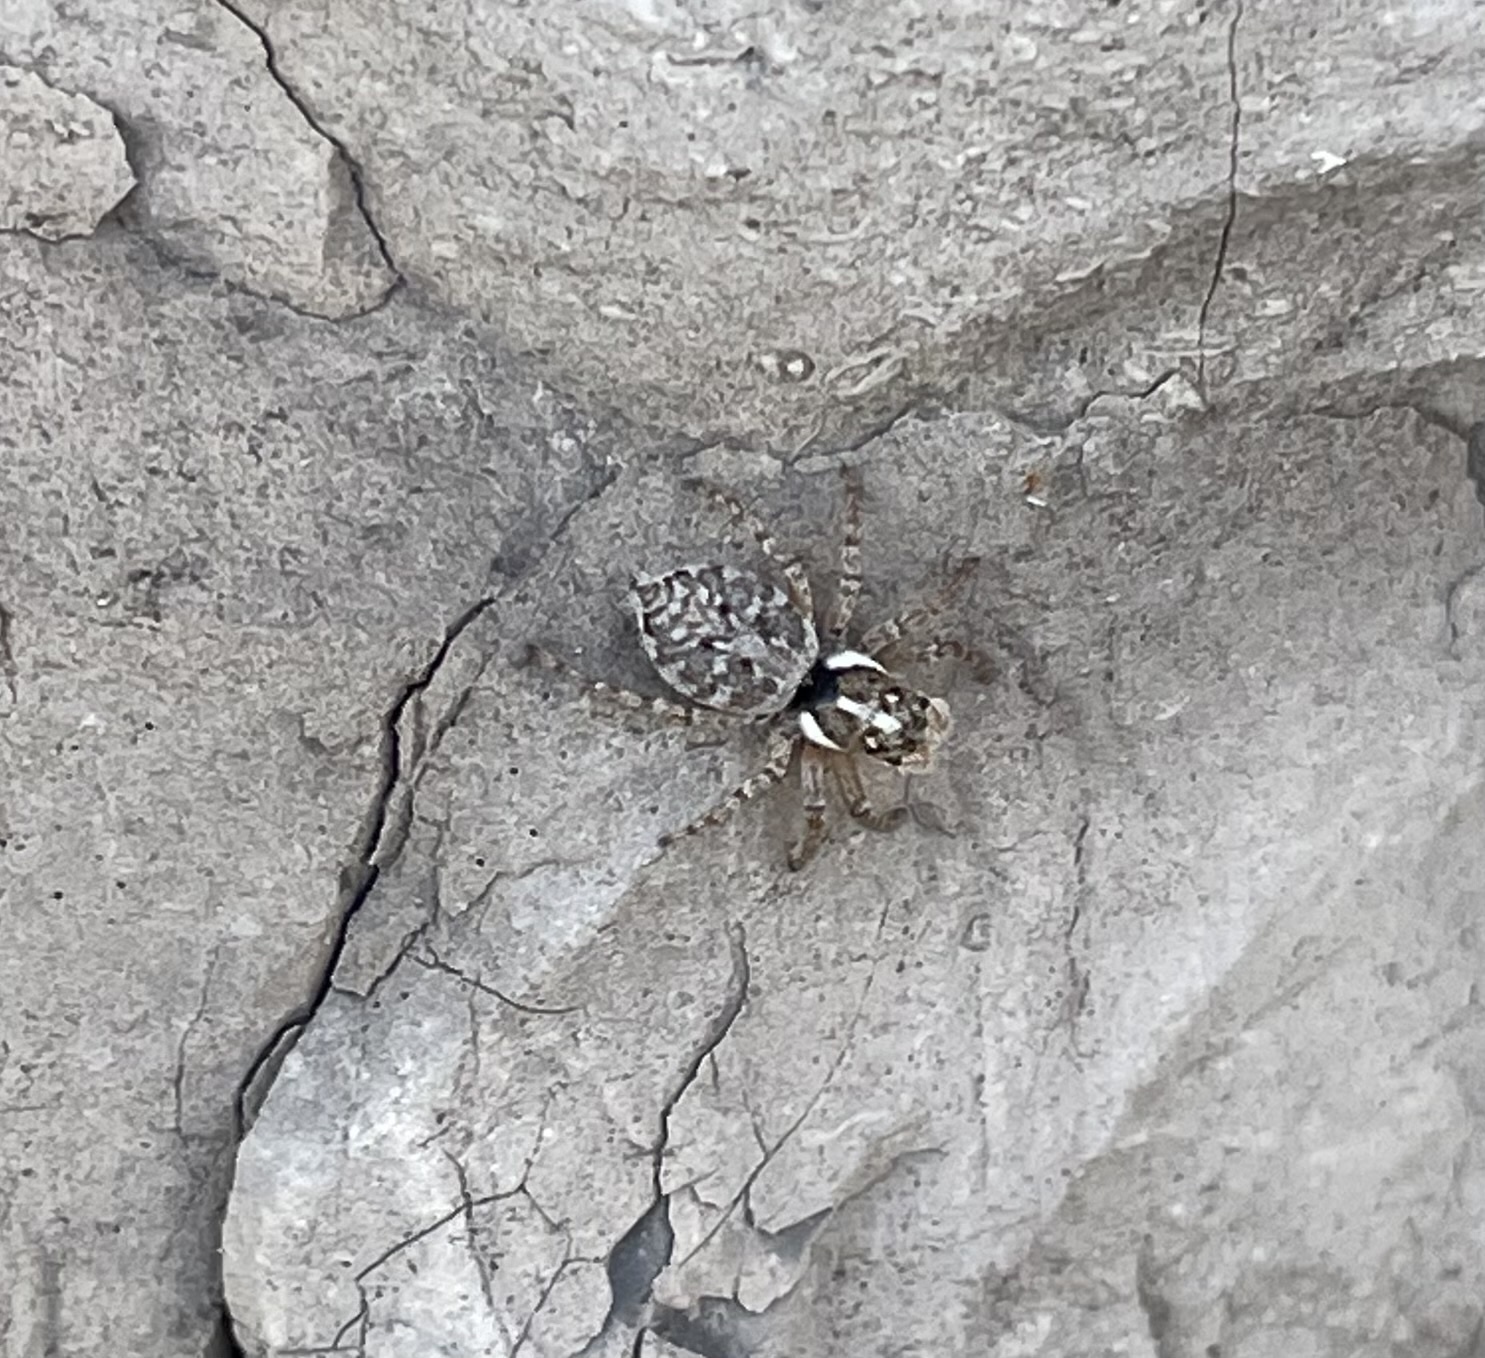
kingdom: Animalia
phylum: Arthropoda
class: Arachnida
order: Araneae
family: Salticidae
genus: Menemerus
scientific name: Menemerus semilimbatus
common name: Jumping spider
